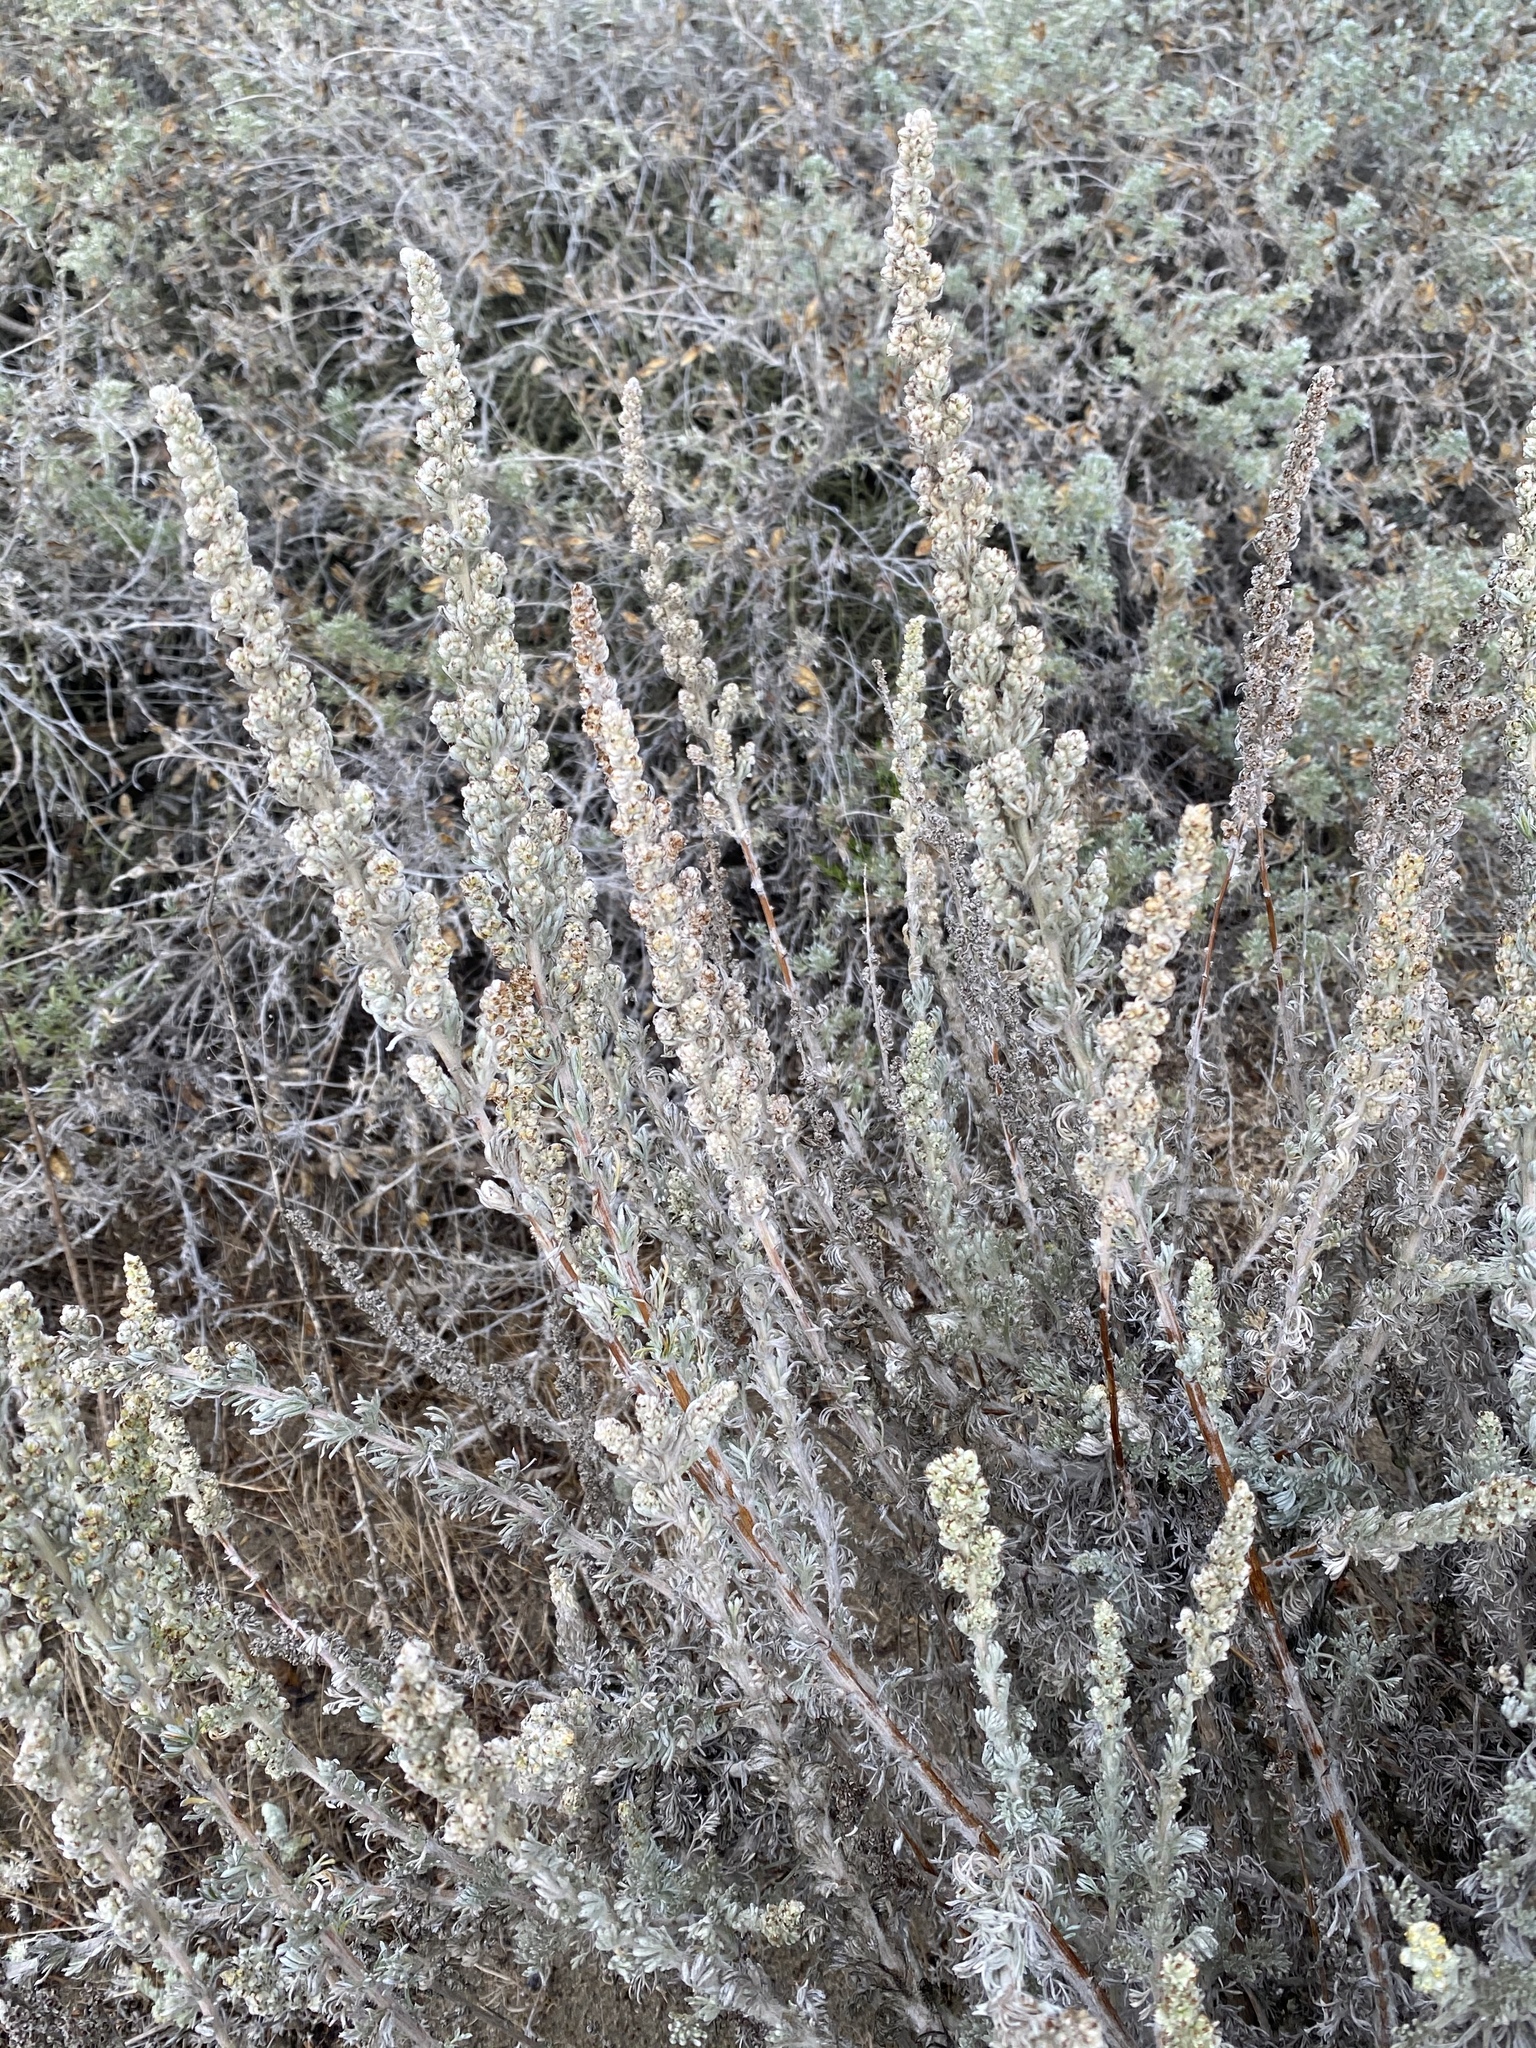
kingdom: Plantae
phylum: Tracheophyta
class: Magnoliopsida
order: Asterales
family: Asteraceae
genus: Artemisia
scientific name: Artemisia pycnocephala
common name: Coastal sagewort
